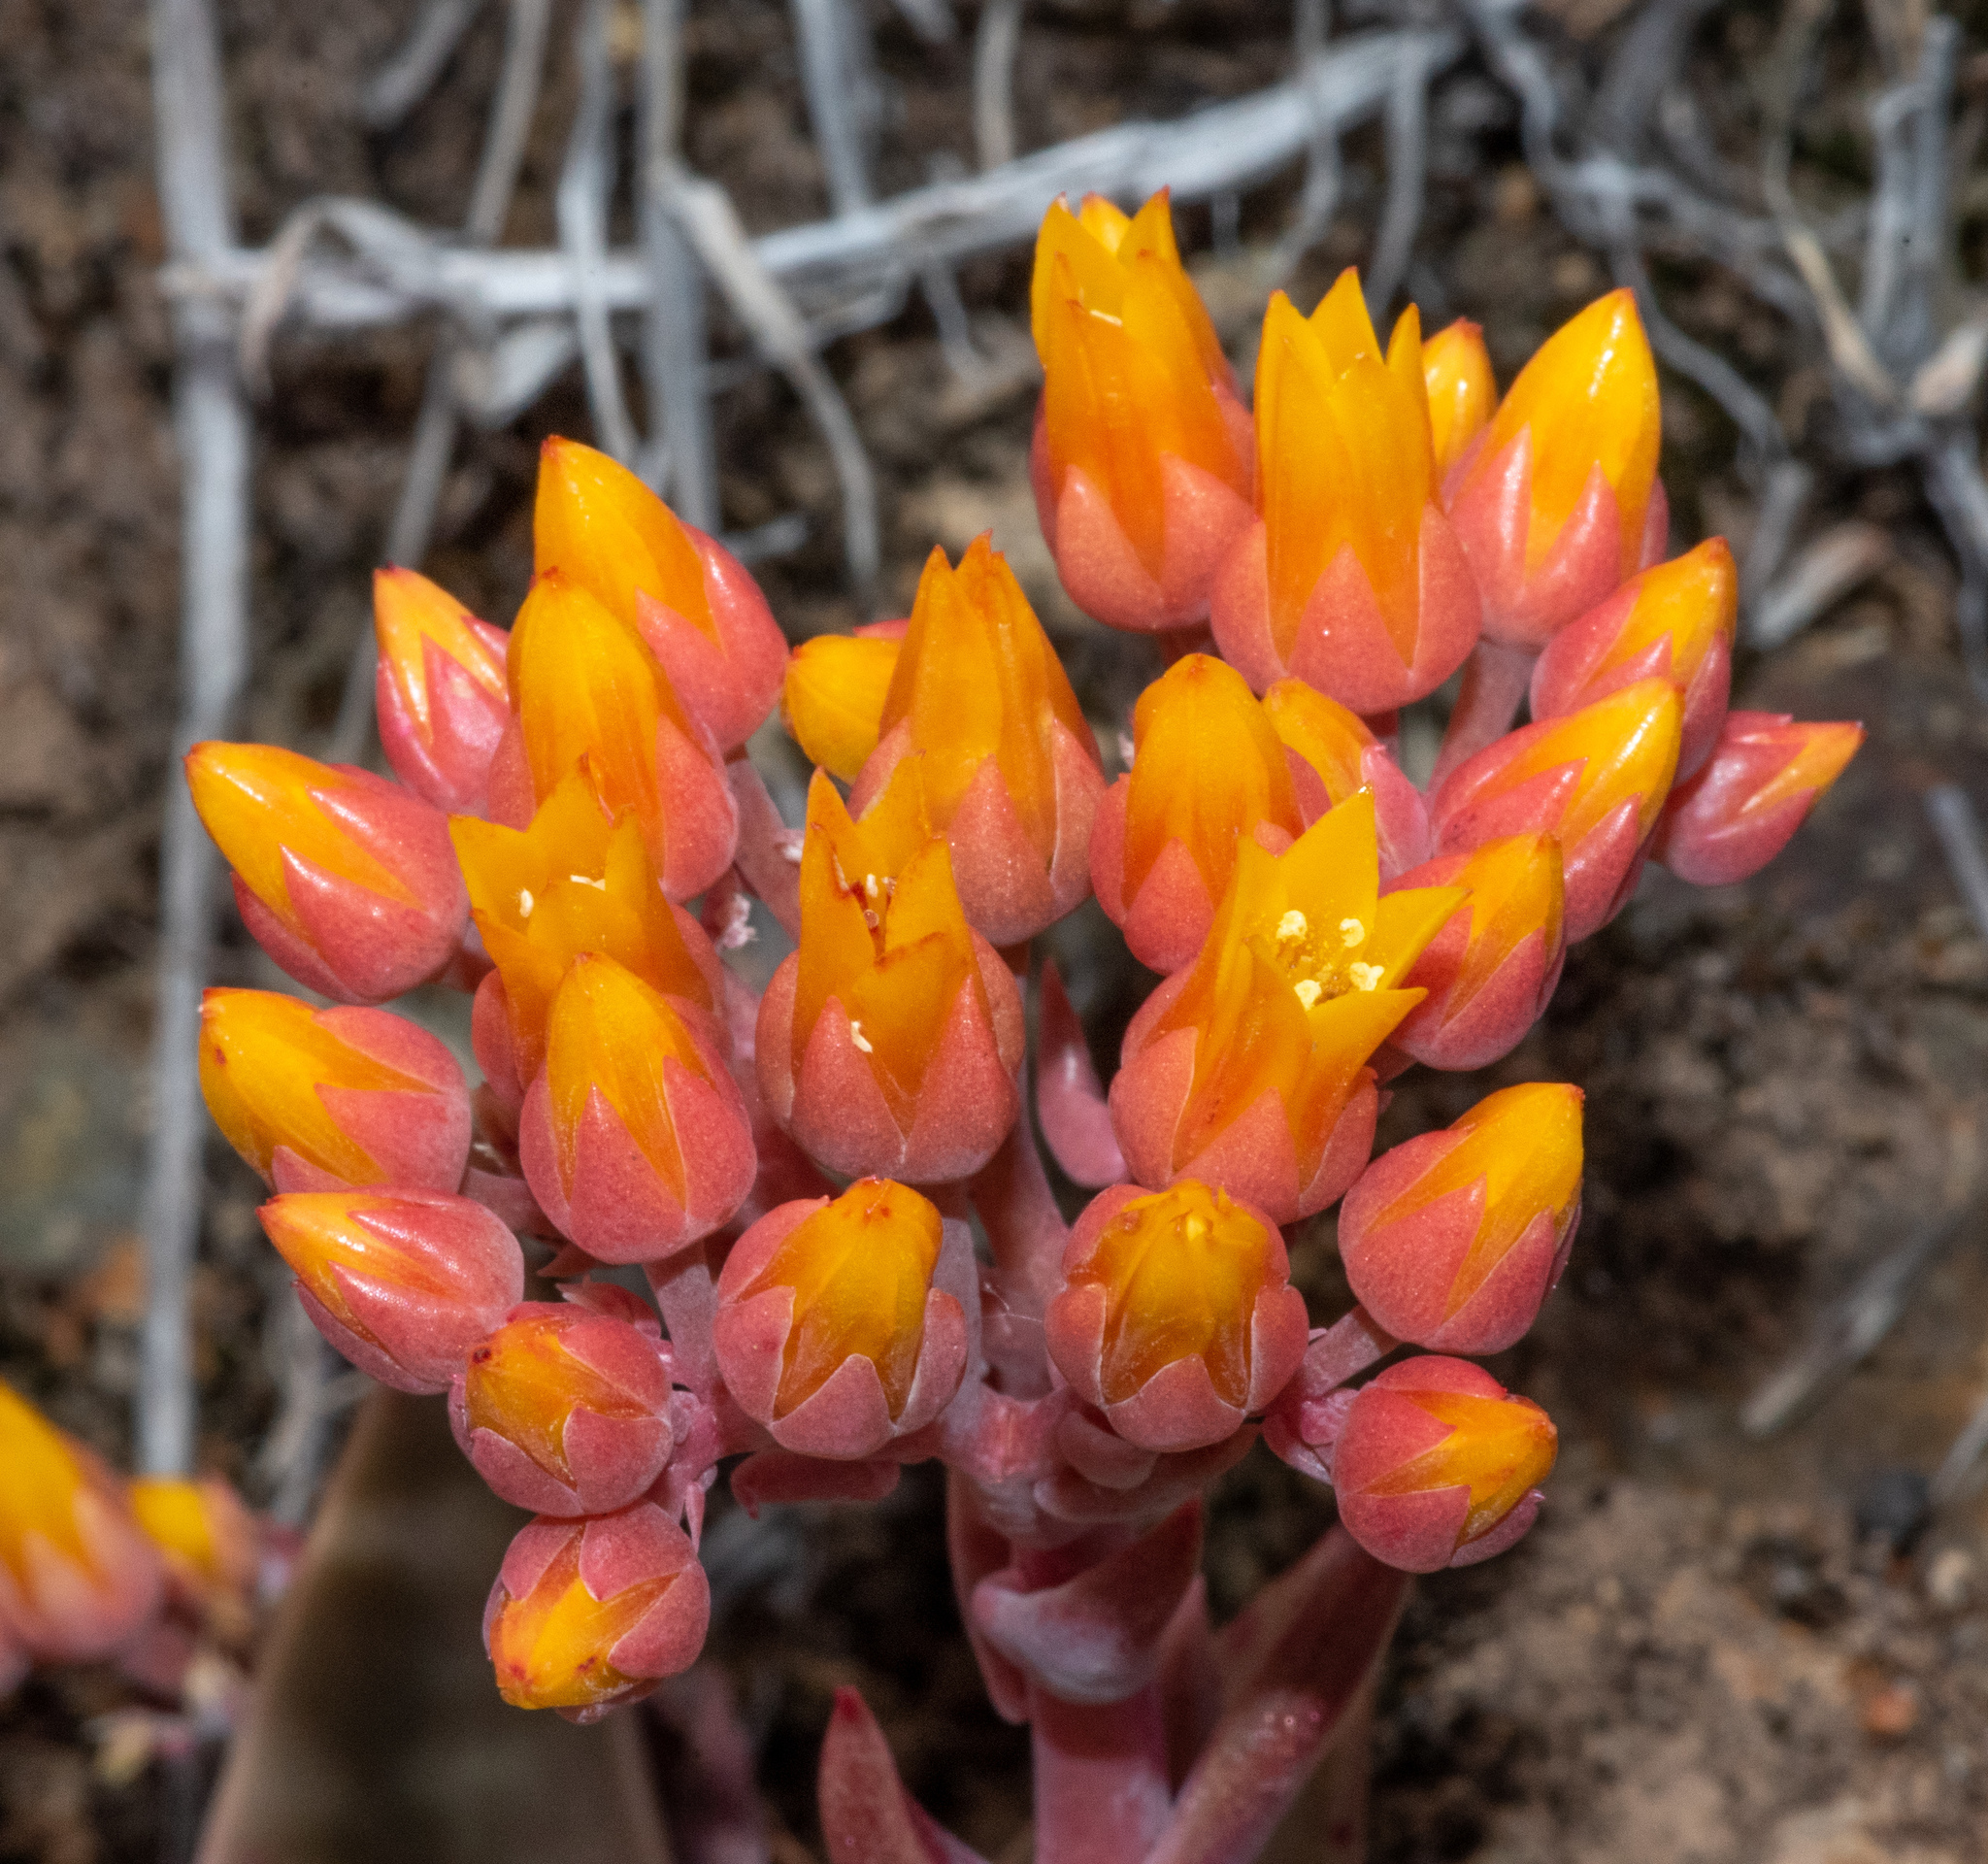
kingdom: Plantae
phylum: Tracheophyta
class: Magnoliopsida
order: Saxifragales
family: Crassulaceae
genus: Dudleya
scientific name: Dudleya cymosa
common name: Canyon dudleya
